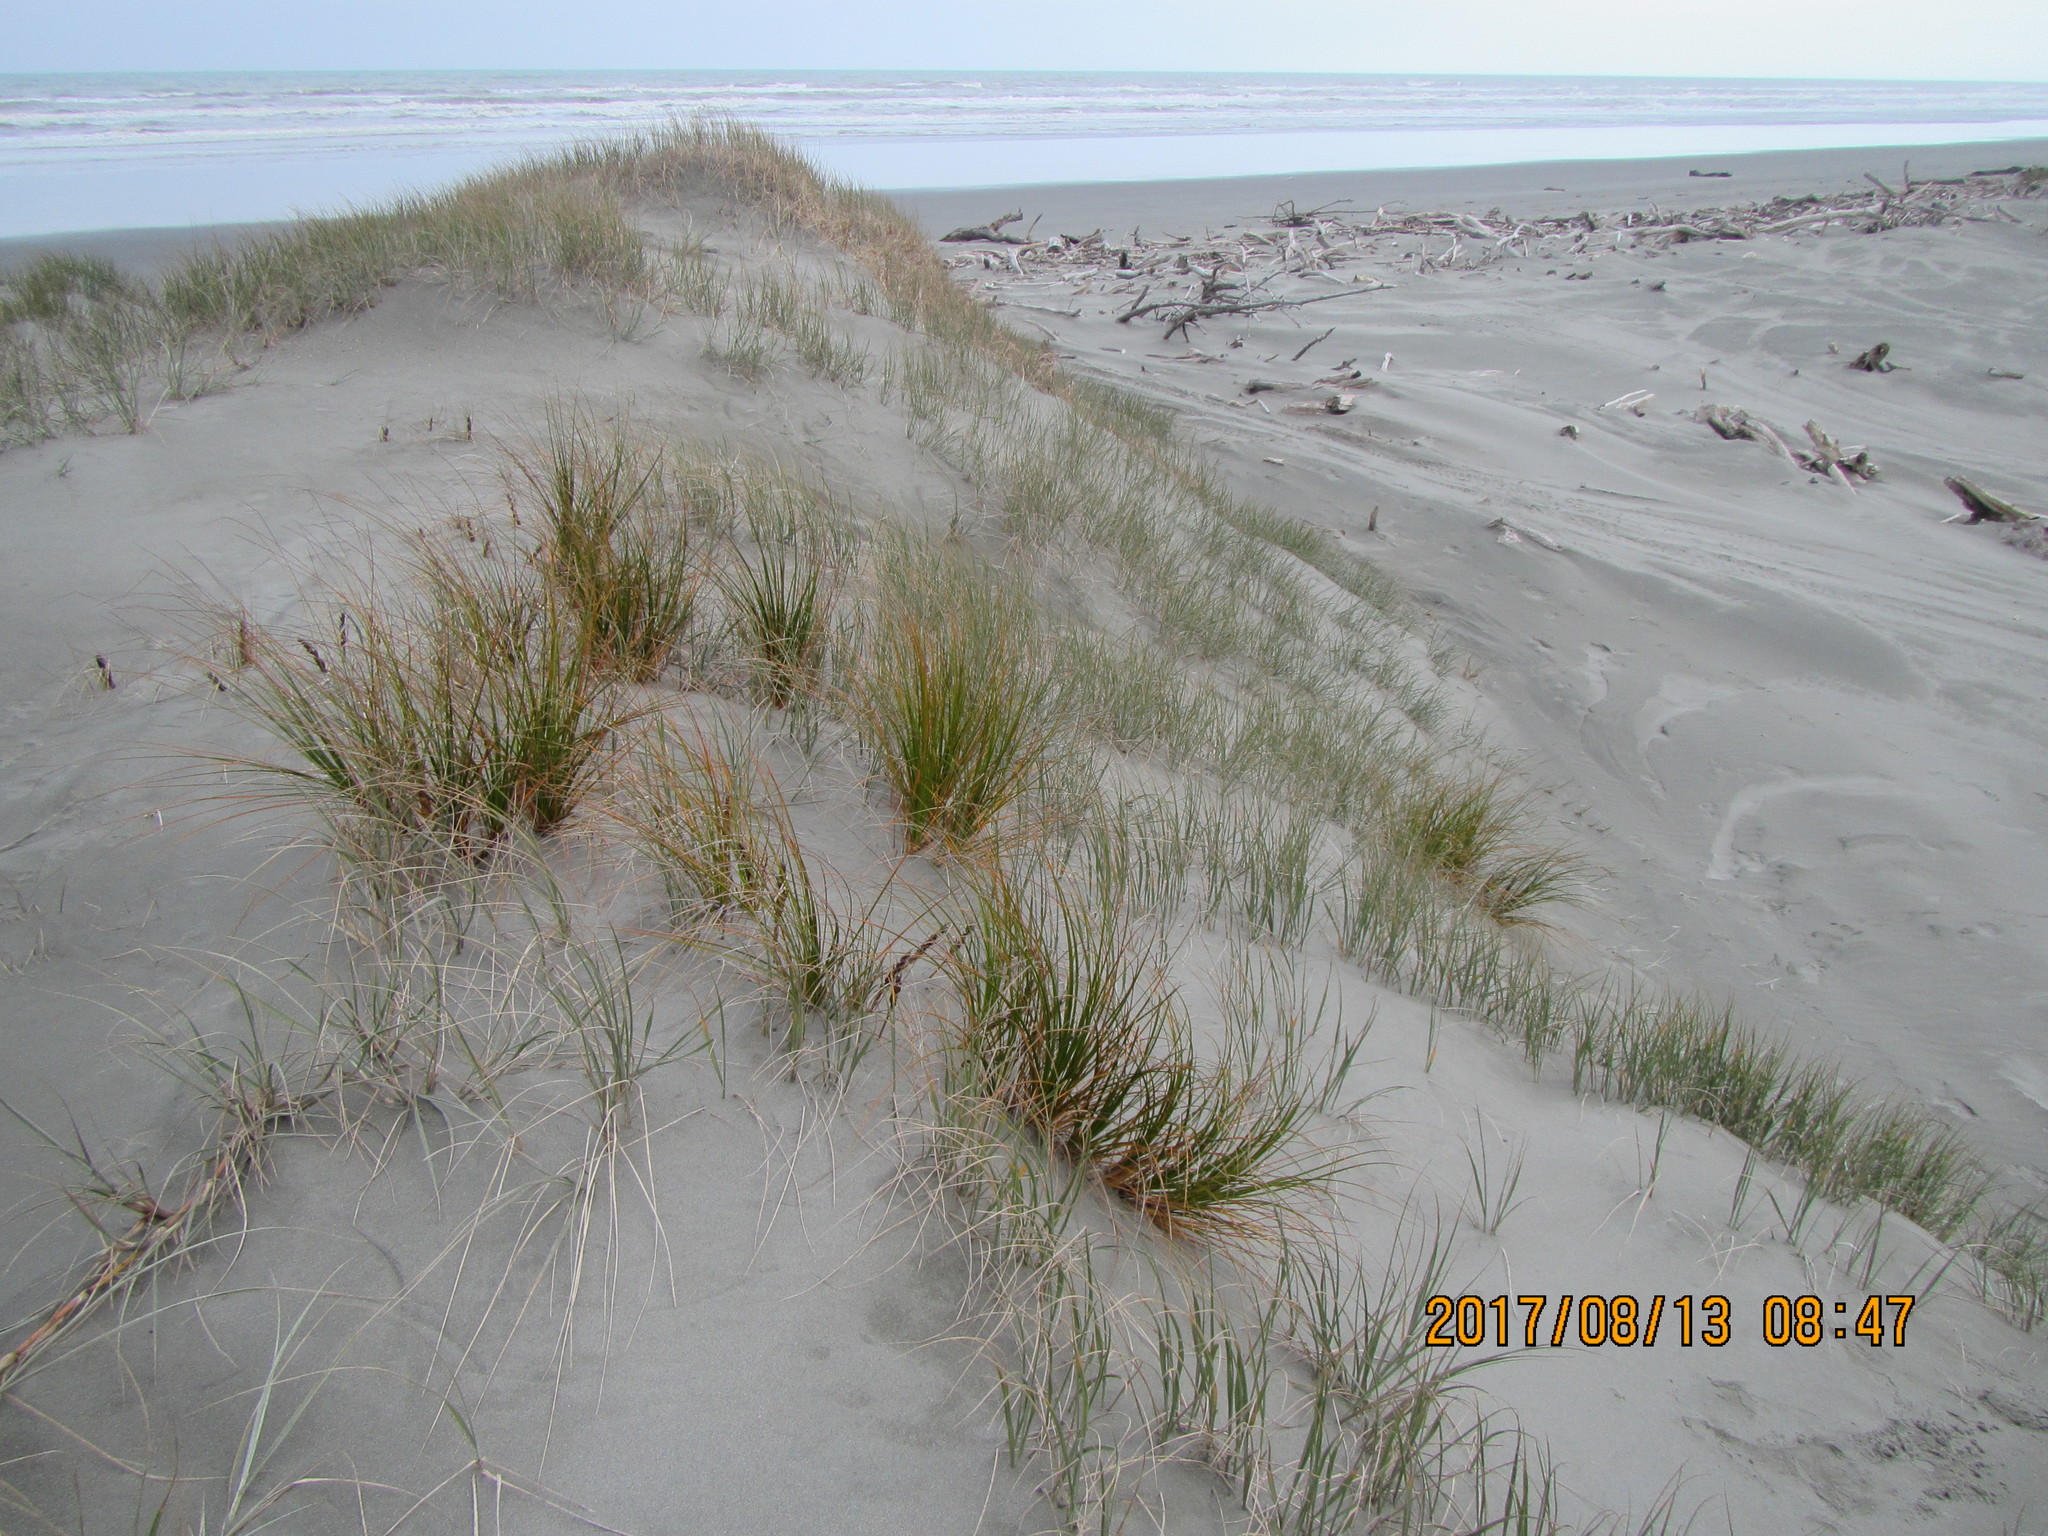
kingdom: Plantae
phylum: Tracheophyta
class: Liliopsida
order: Poales
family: Cyperaceae
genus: Ficinia
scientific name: Ficinia spiralis
